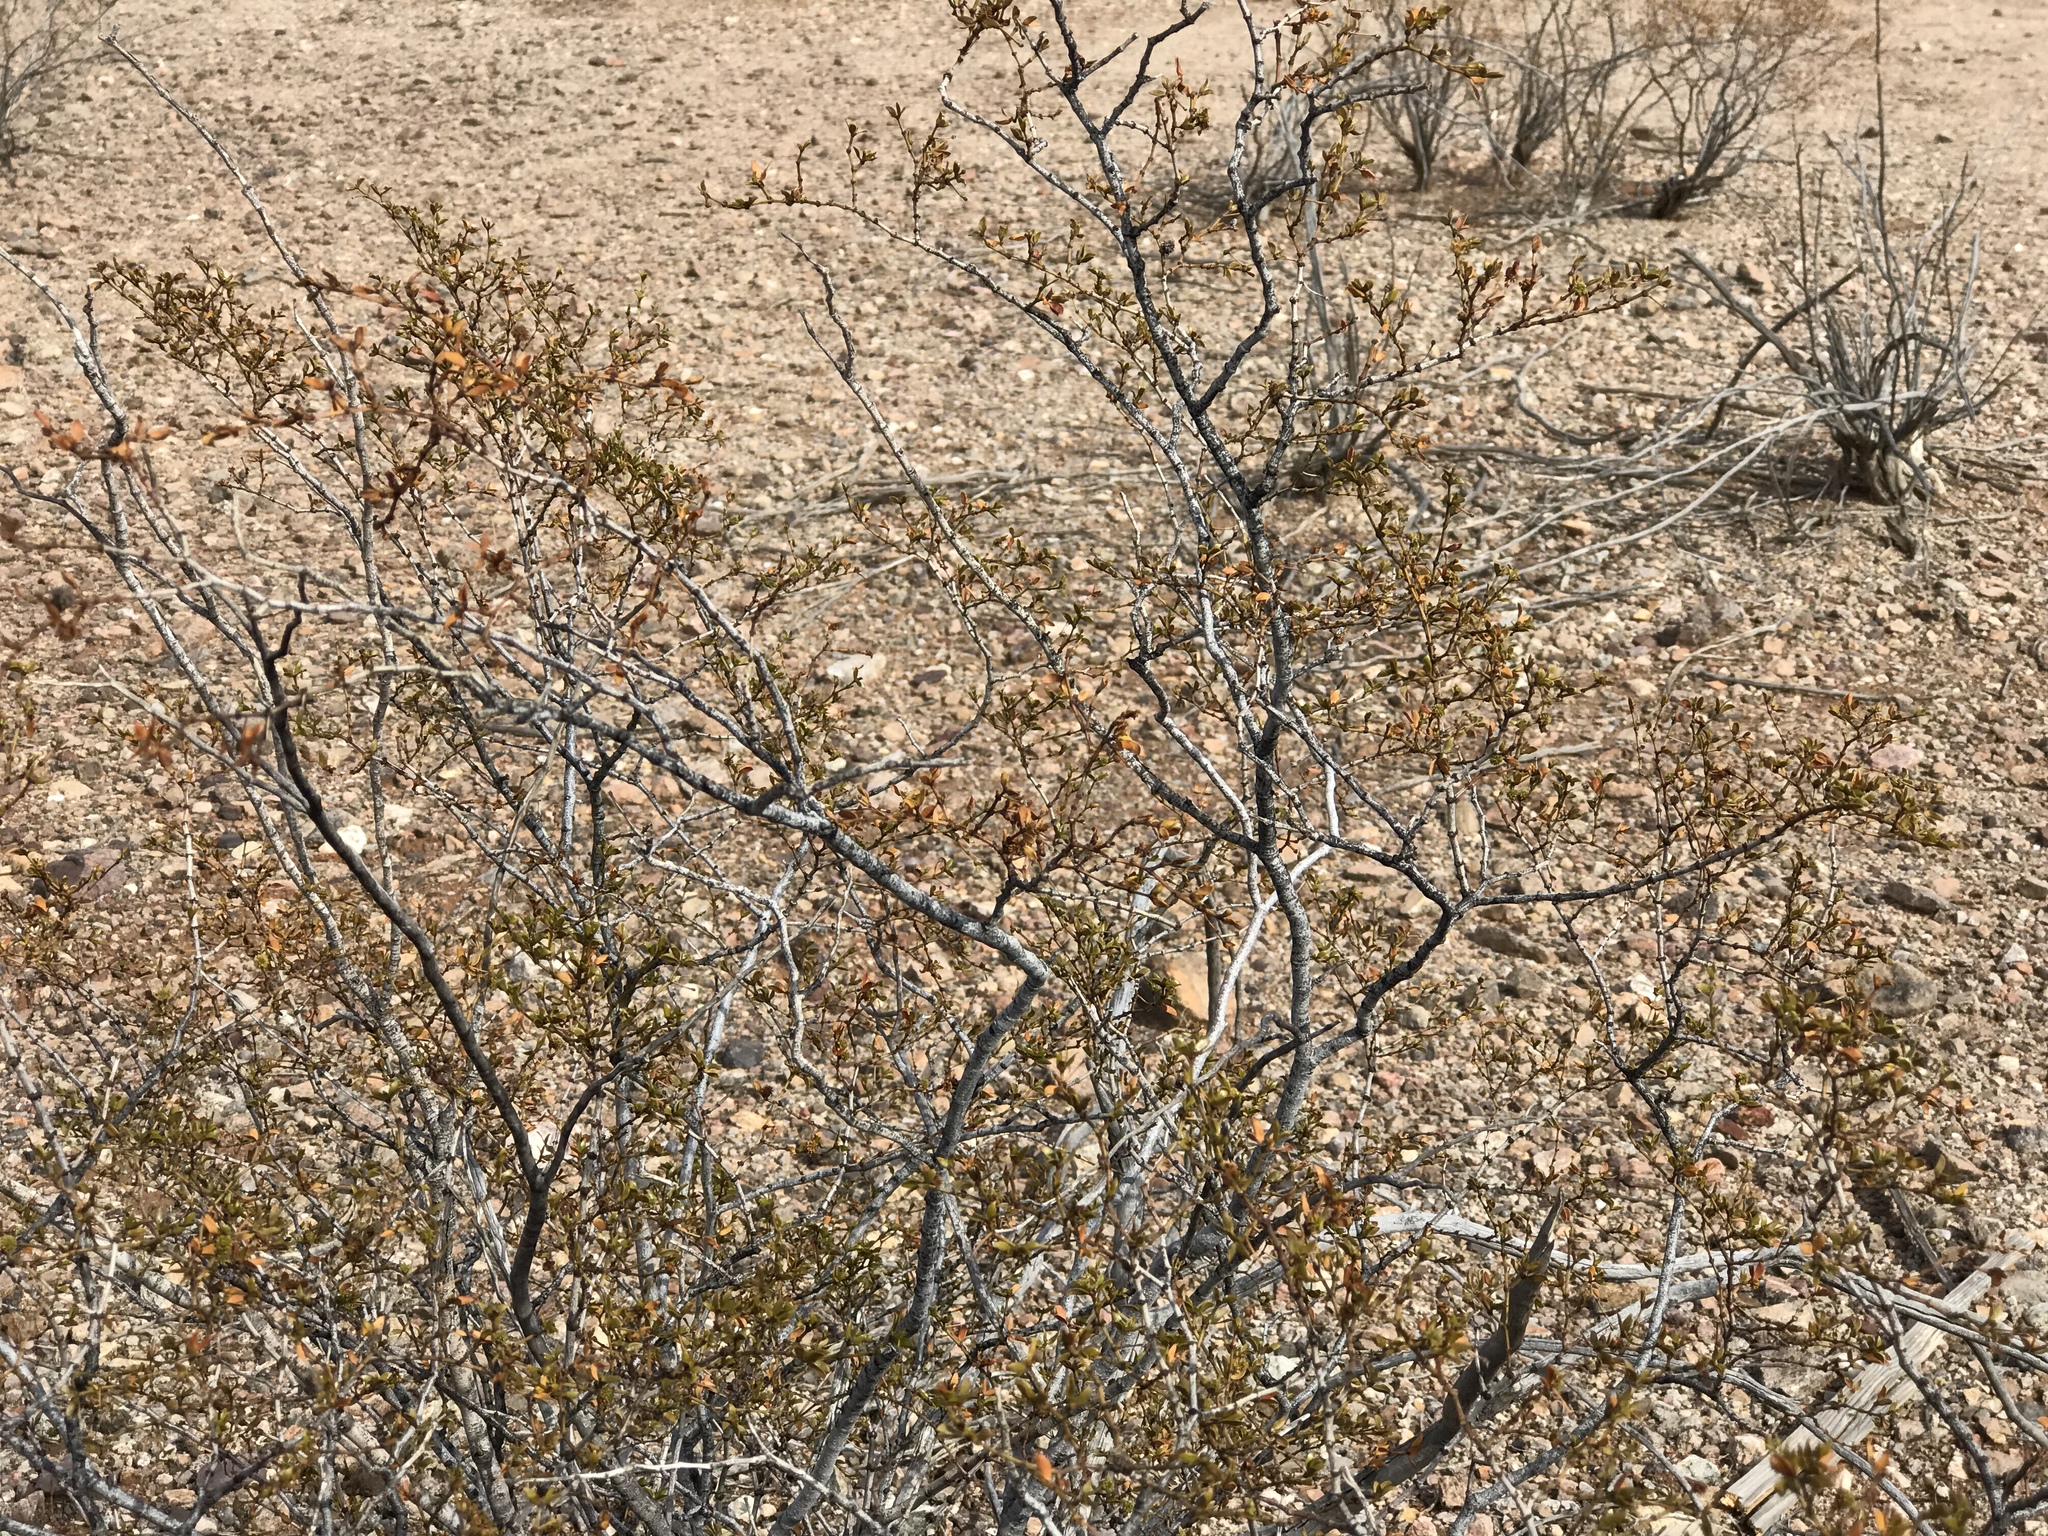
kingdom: Plantae
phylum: Tracheophyta
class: Magnoliopsida
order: Zygophyllales
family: Zygophyllaceae
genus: Larrea
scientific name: Larrea tridentata
